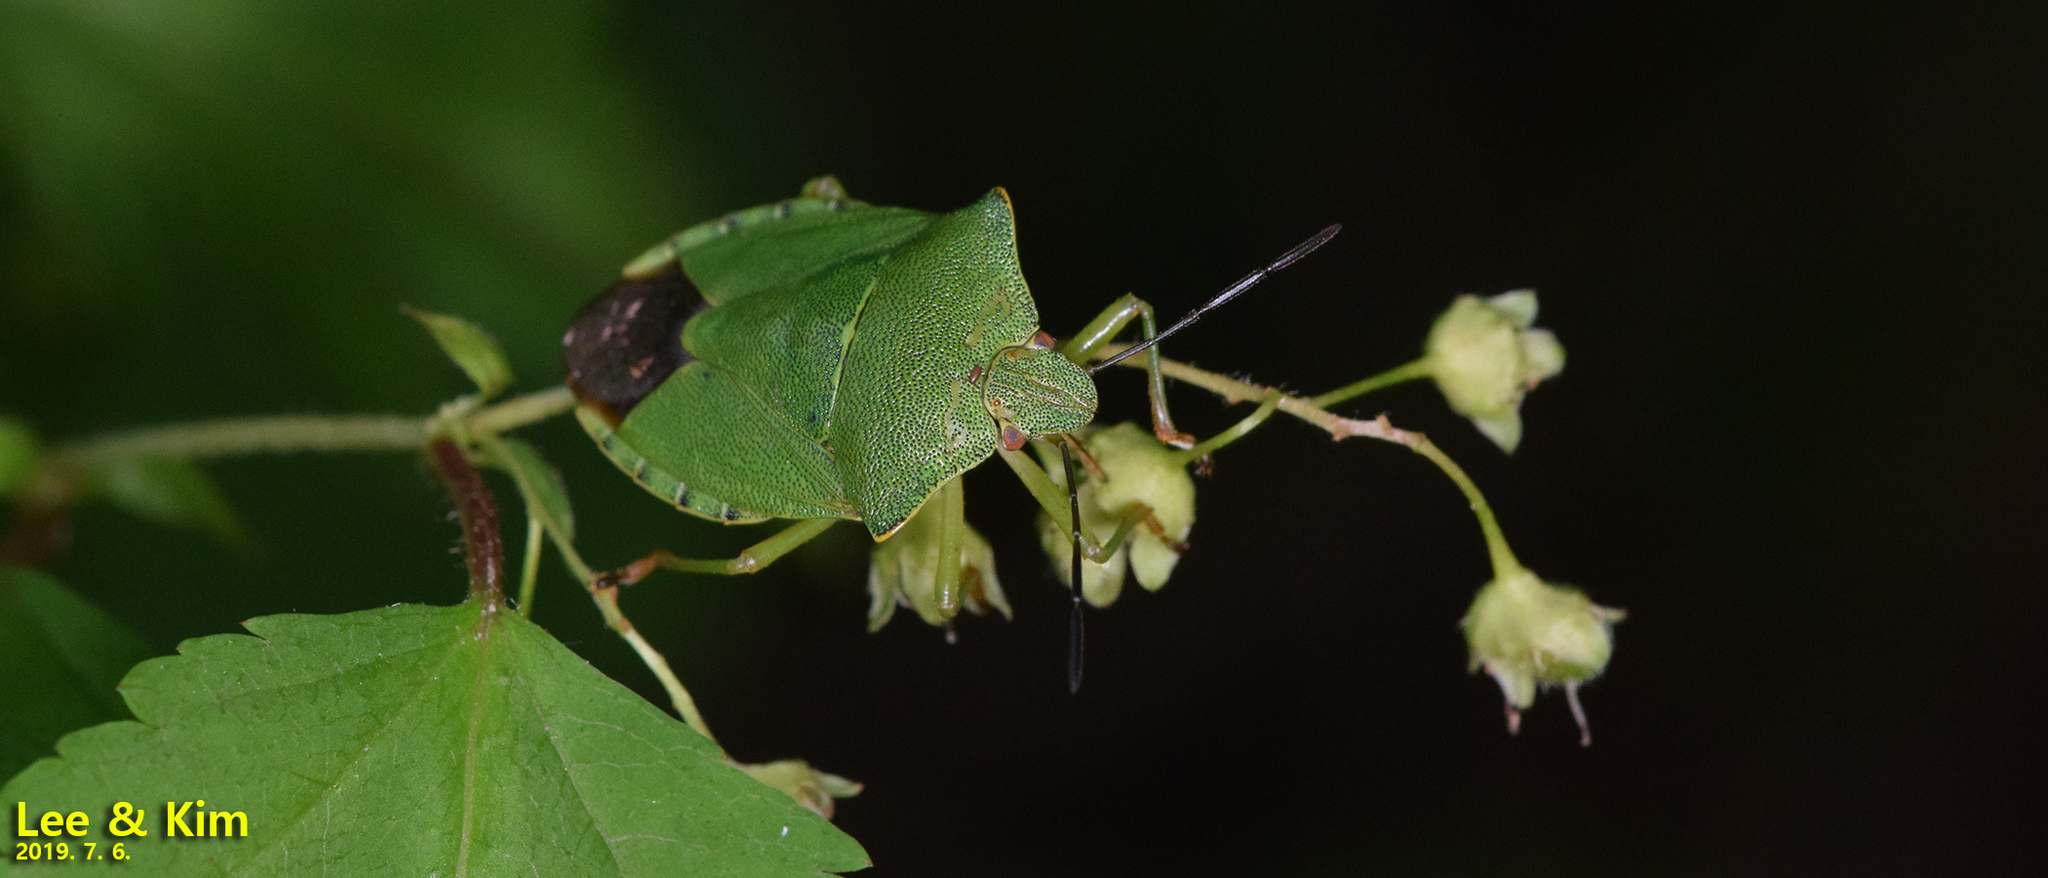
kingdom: Animalia
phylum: Arthropoda
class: Insecta
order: Hemiptera
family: Pentatomidae
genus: Palomena
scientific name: Palomena
